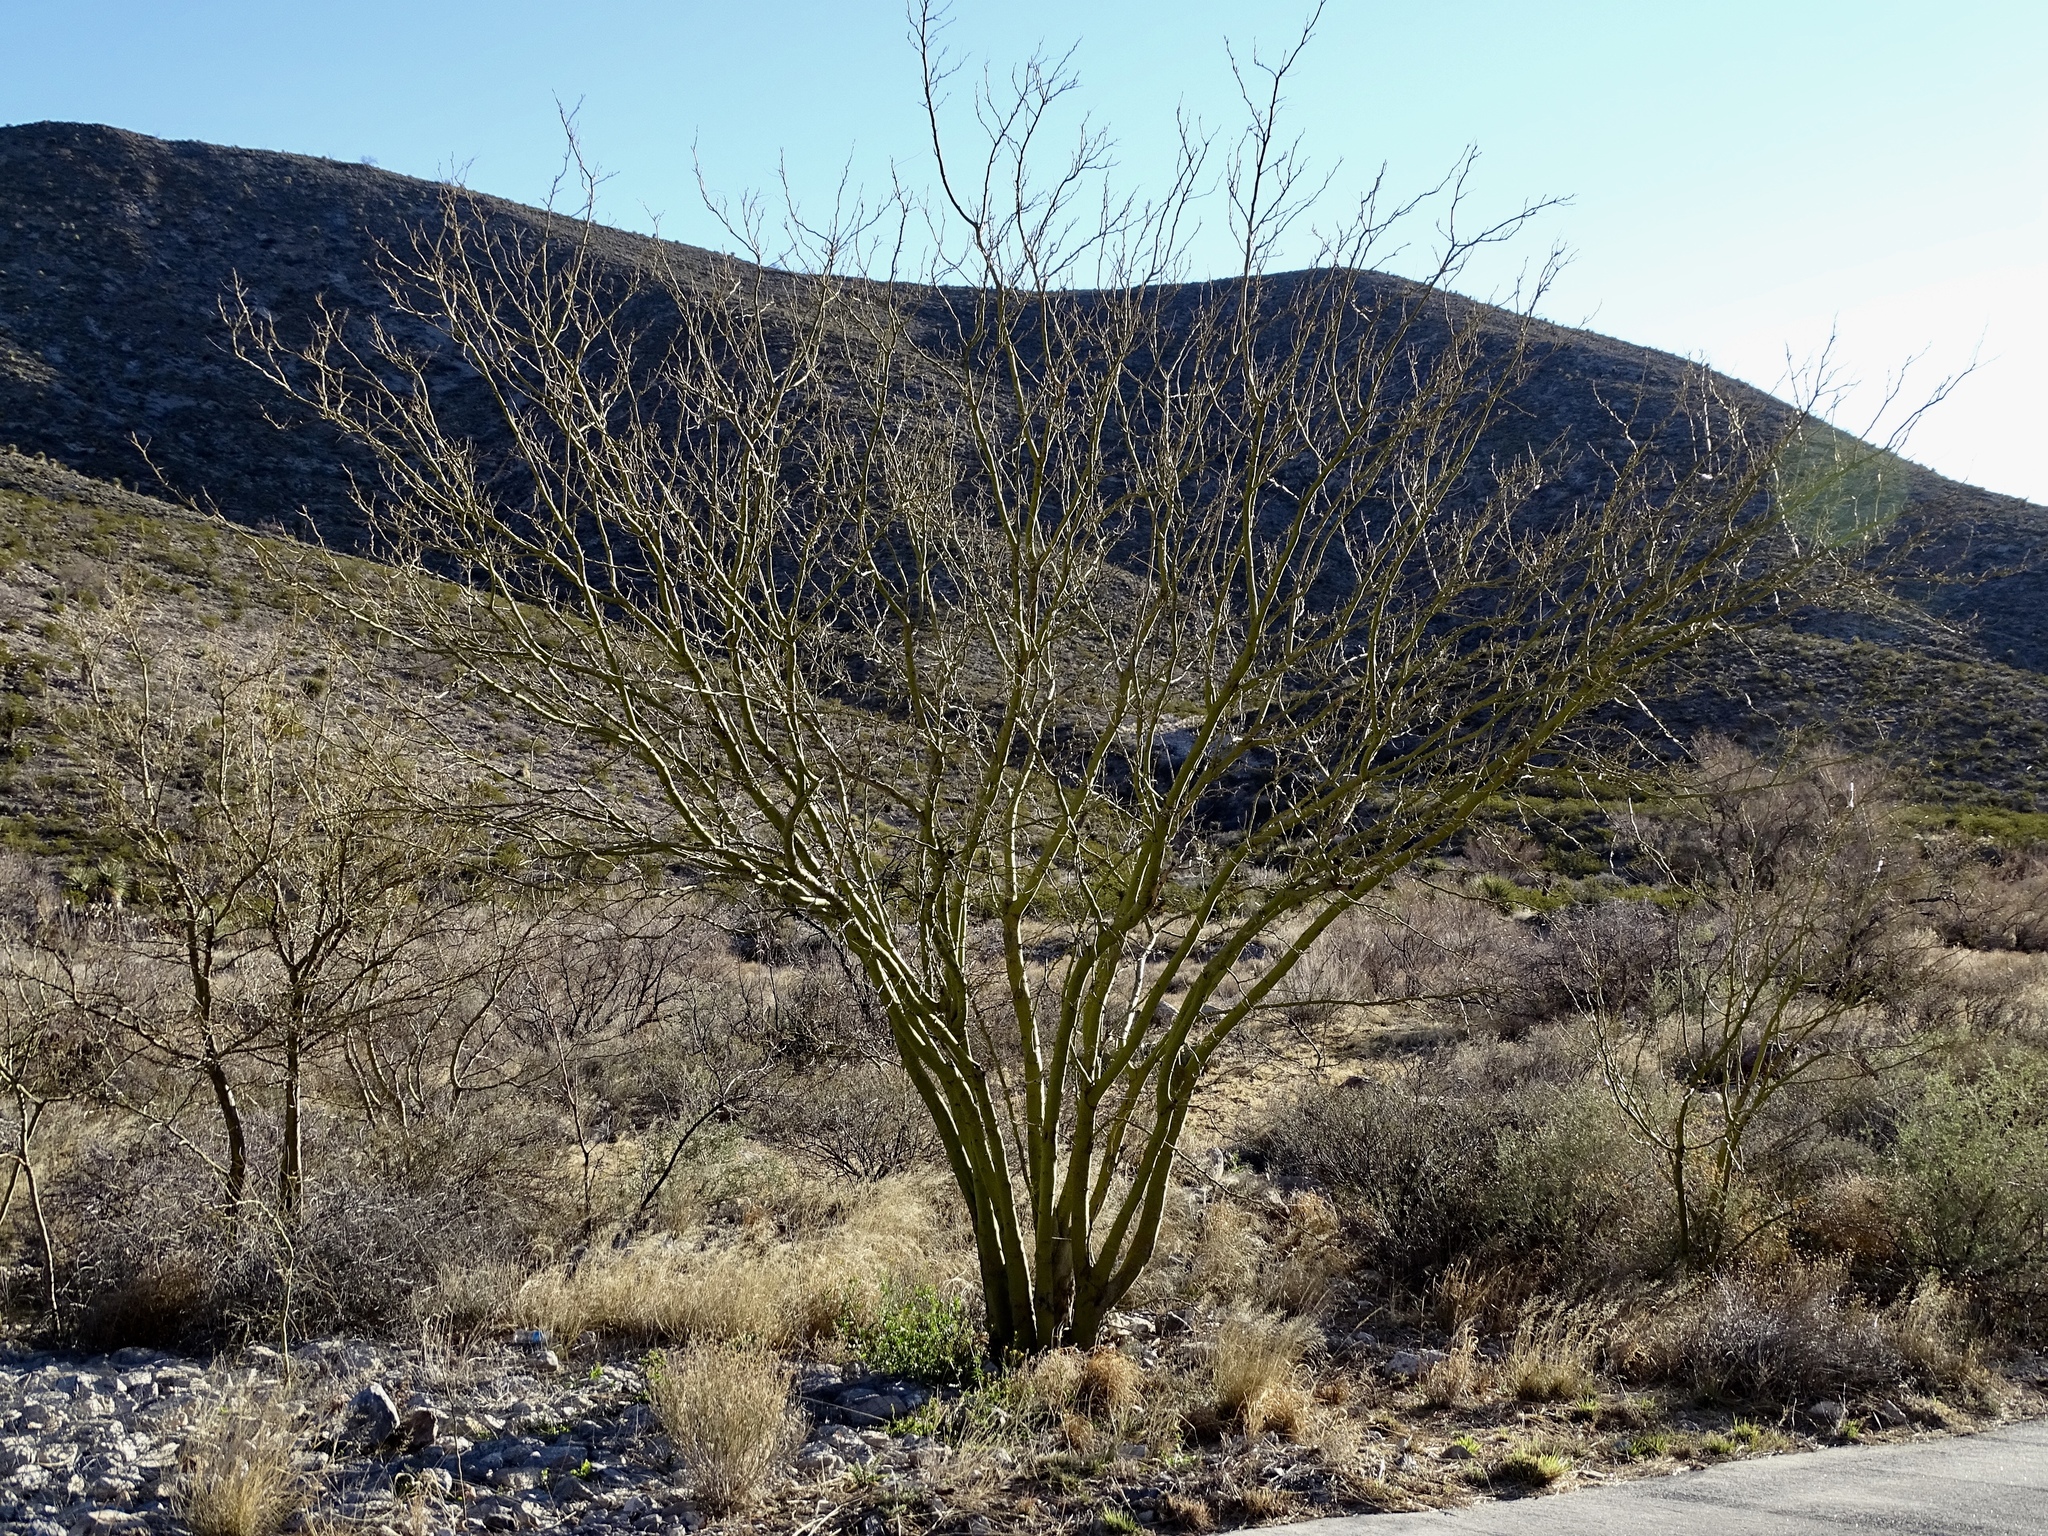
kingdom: Plantae
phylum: Tracheophyta
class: Magnoliopsida
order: Fabales
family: Fabaceae
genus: Parkinsonia
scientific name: Parkinsonia aculeata
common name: Jerusalem thorn
